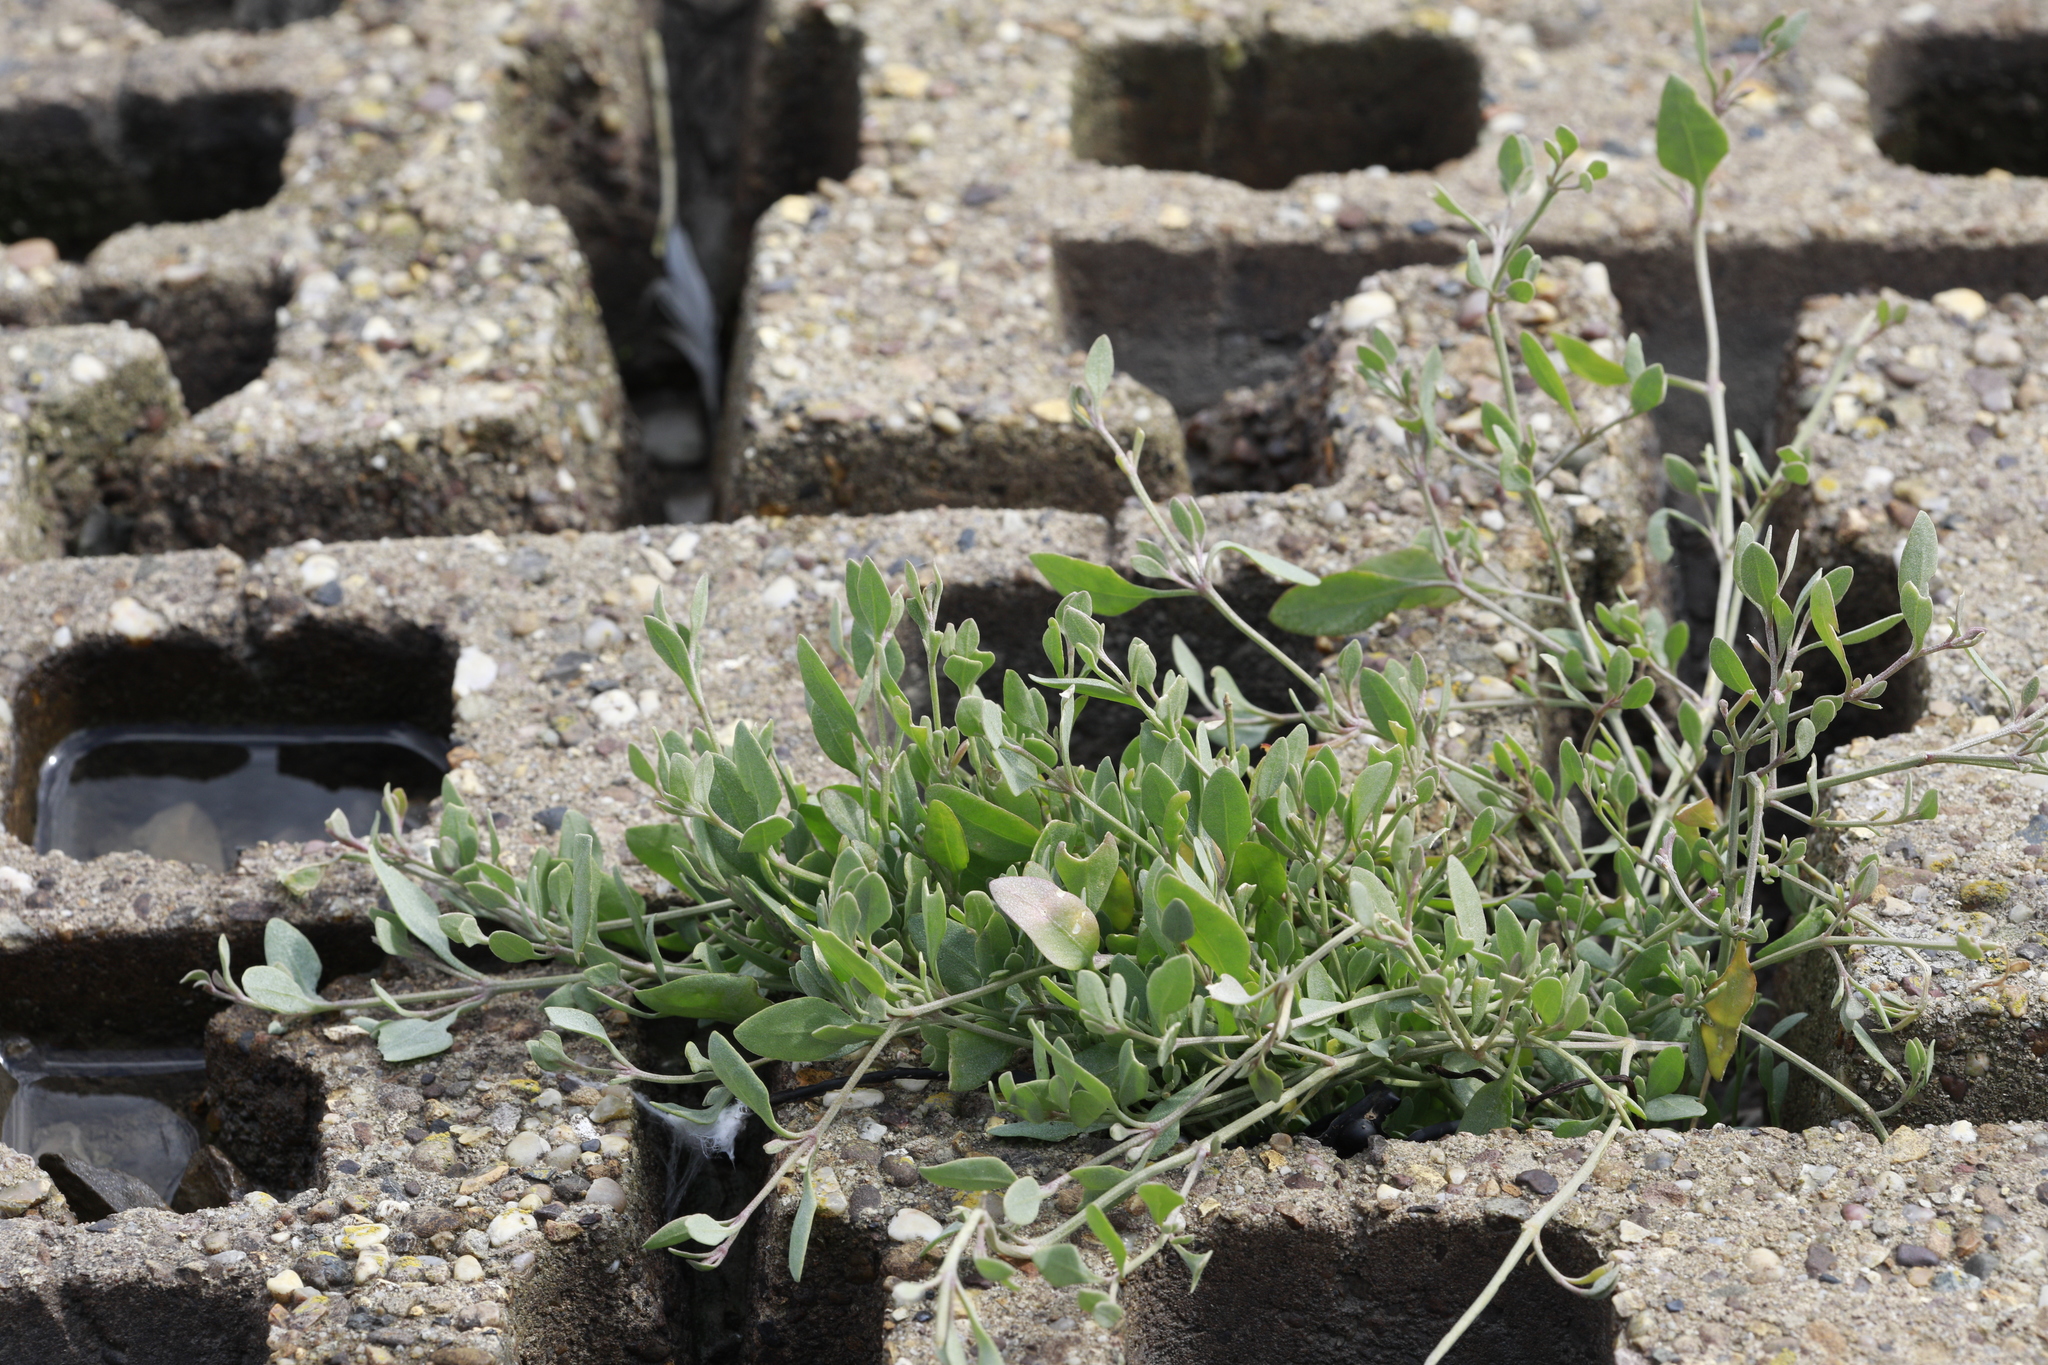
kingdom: Plantae
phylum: Tracheophyta
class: Magnoliopsida
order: Caryophyllales
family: Amaranthaceae
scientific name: Amaranthaceae
